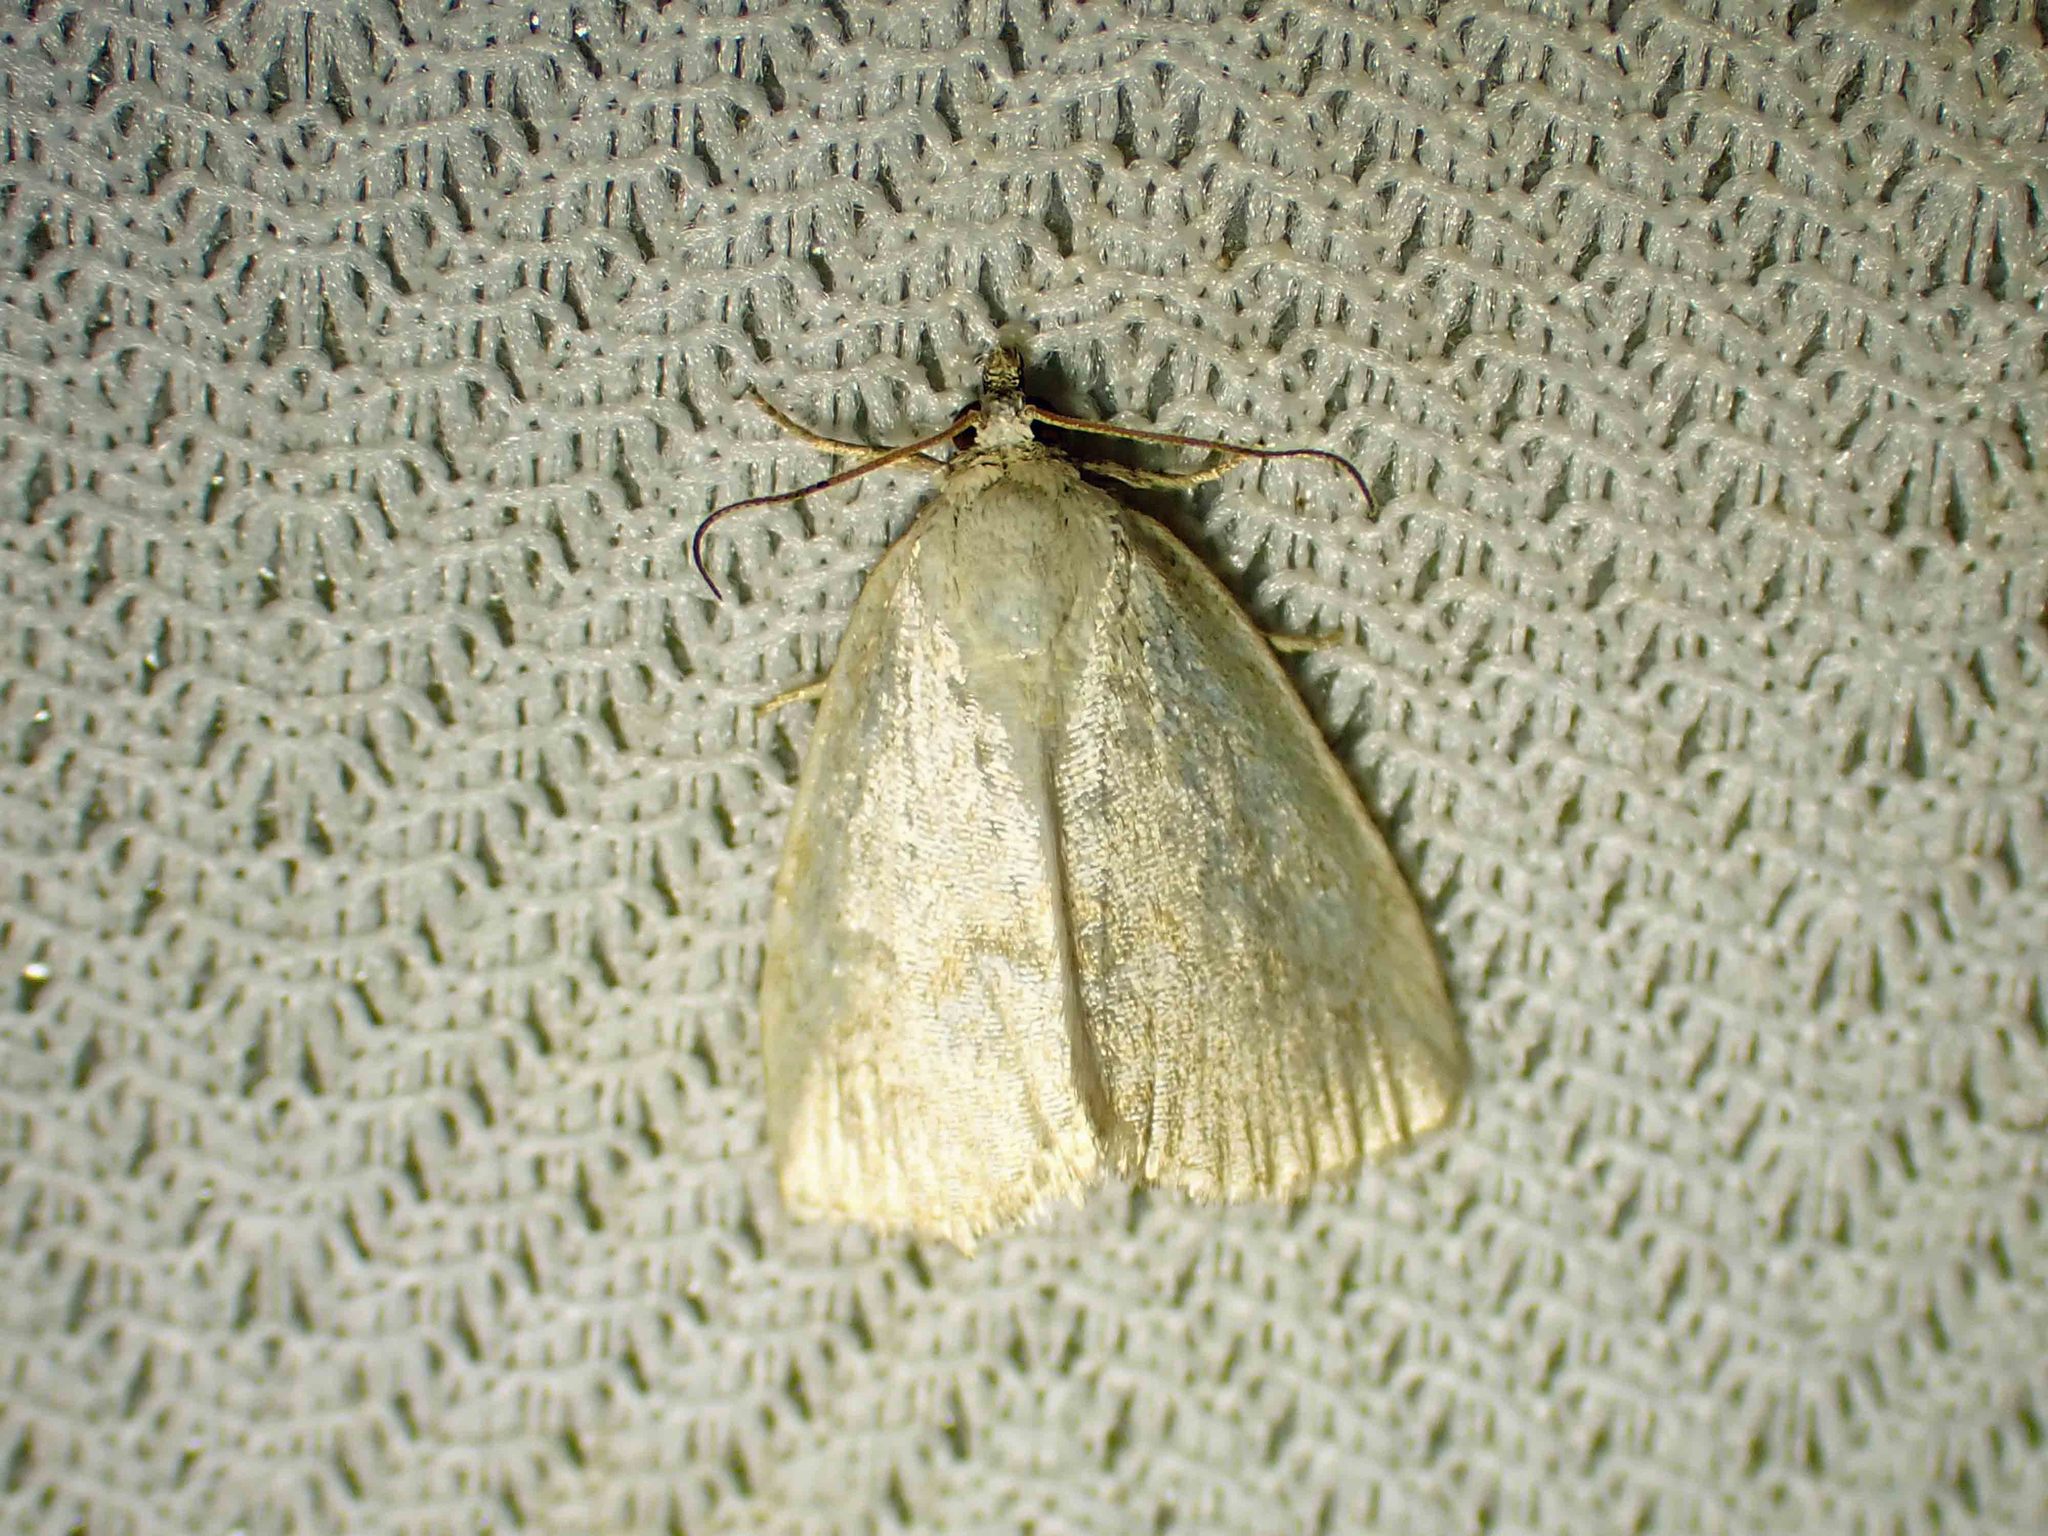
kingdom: Animalia
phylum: Arthropoda
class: Insecta
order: Lepidoptera
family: Noctuidae
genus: Protodeltote
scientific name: Protodeltote albidula
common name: Pale glyph
